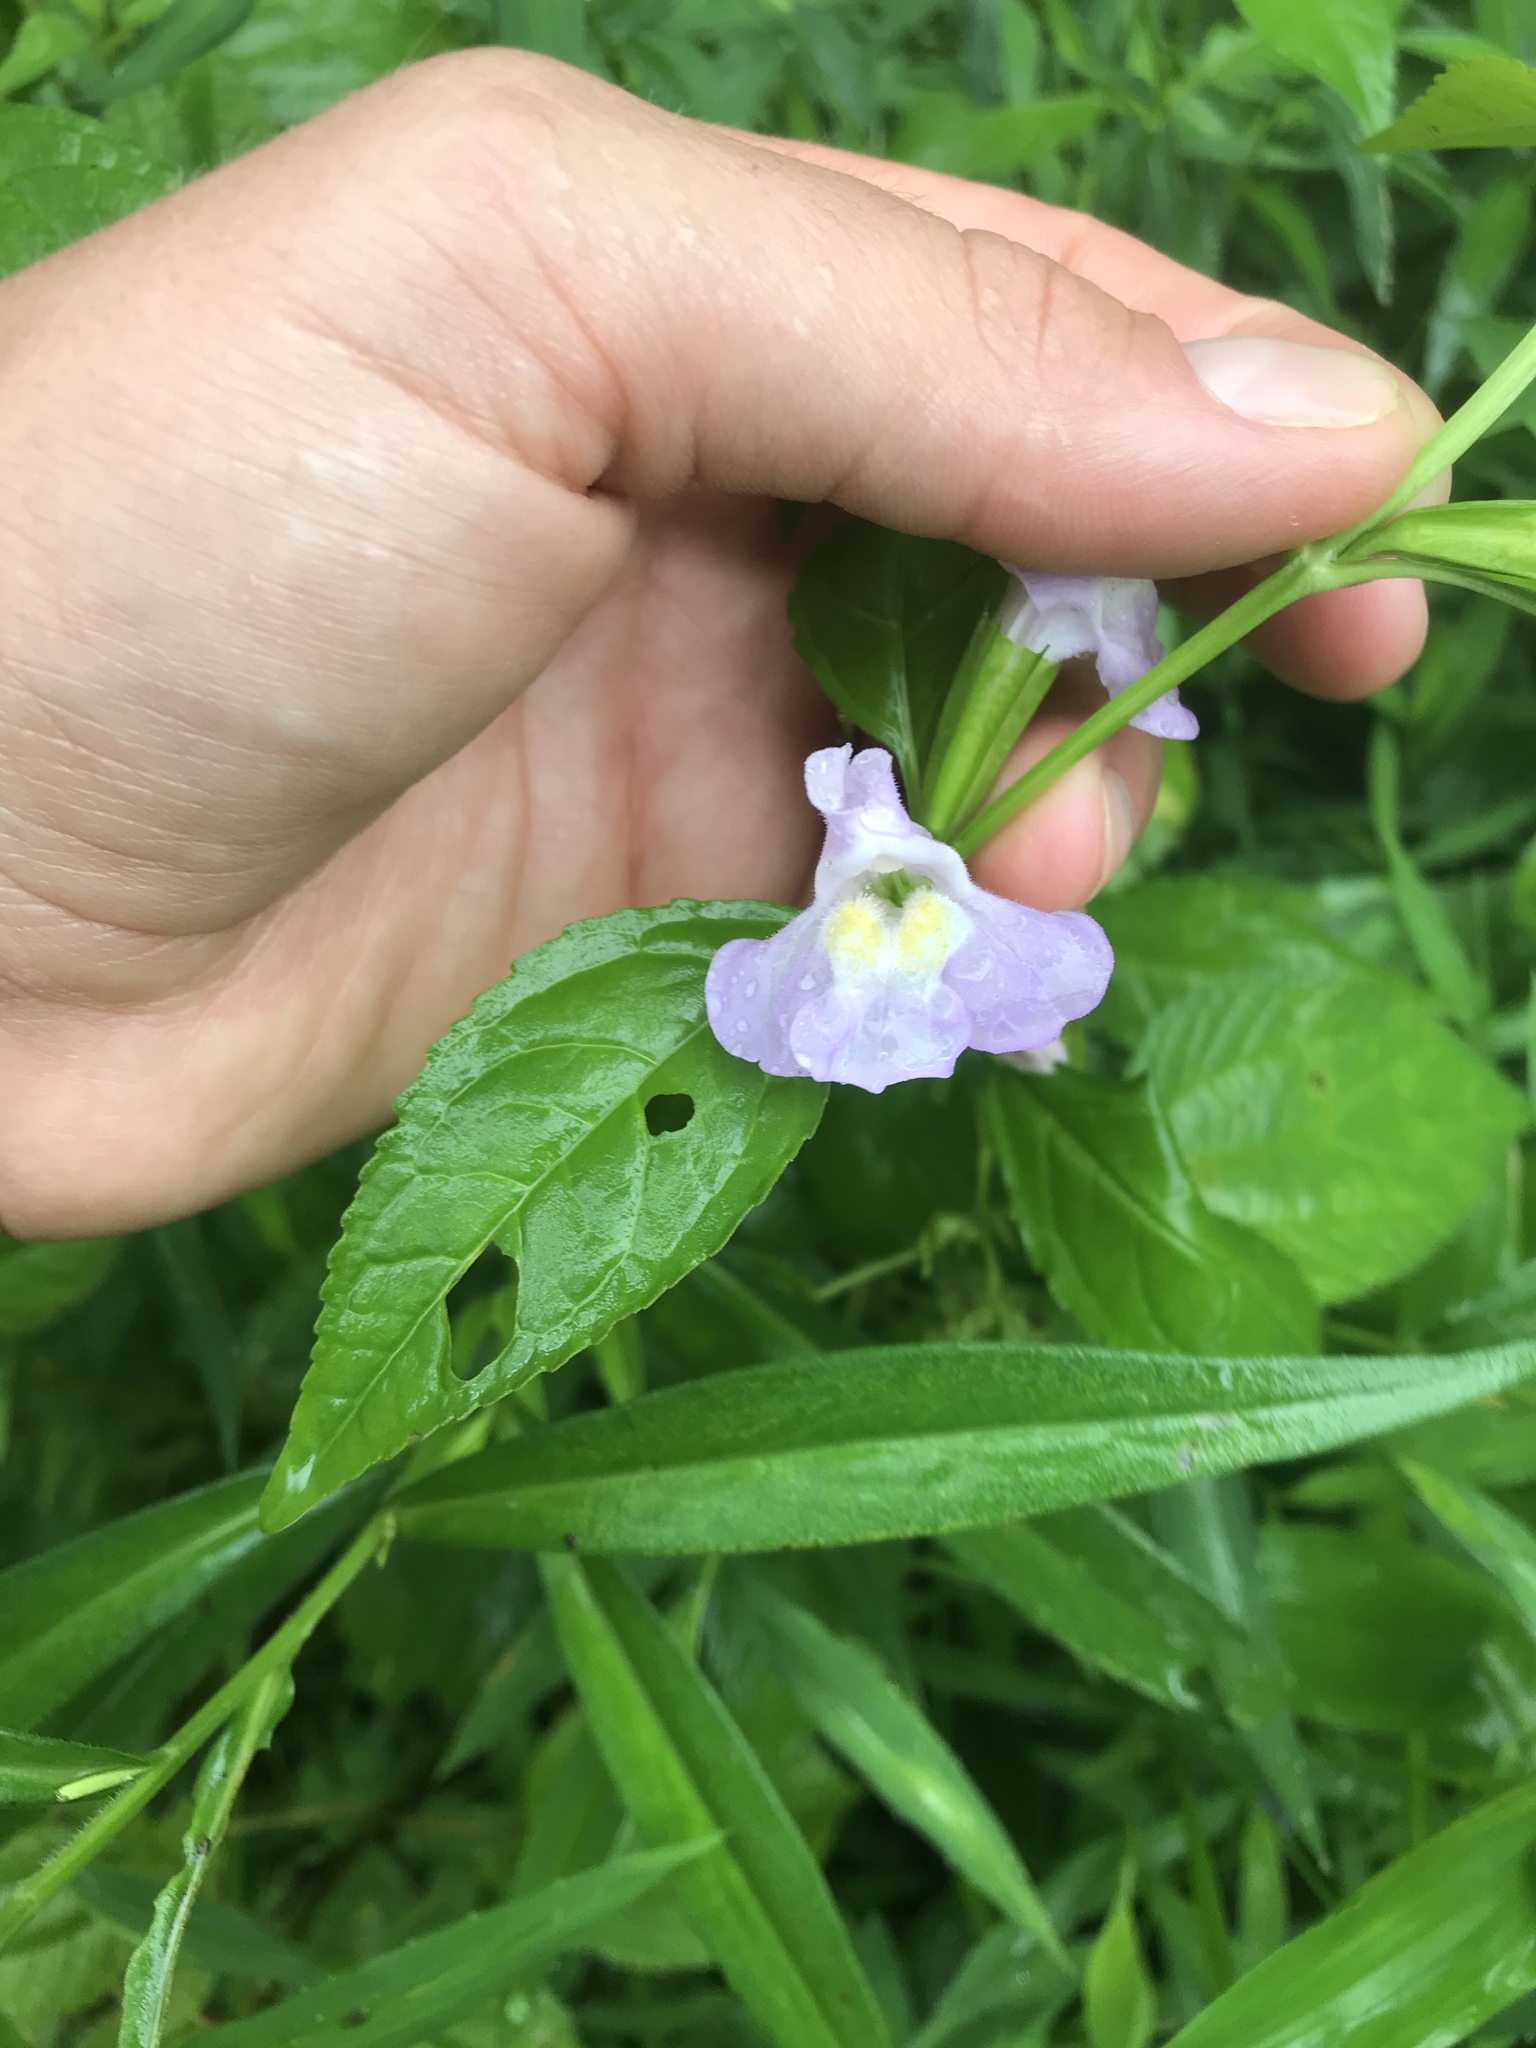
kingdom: Plantae
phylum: Tracheophyta
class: Magnoliopsida
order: Lamiales
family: Phrymaceae
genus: Mimulus
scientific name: Mimulus alatus
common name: Sharp-wing monkey-flower
